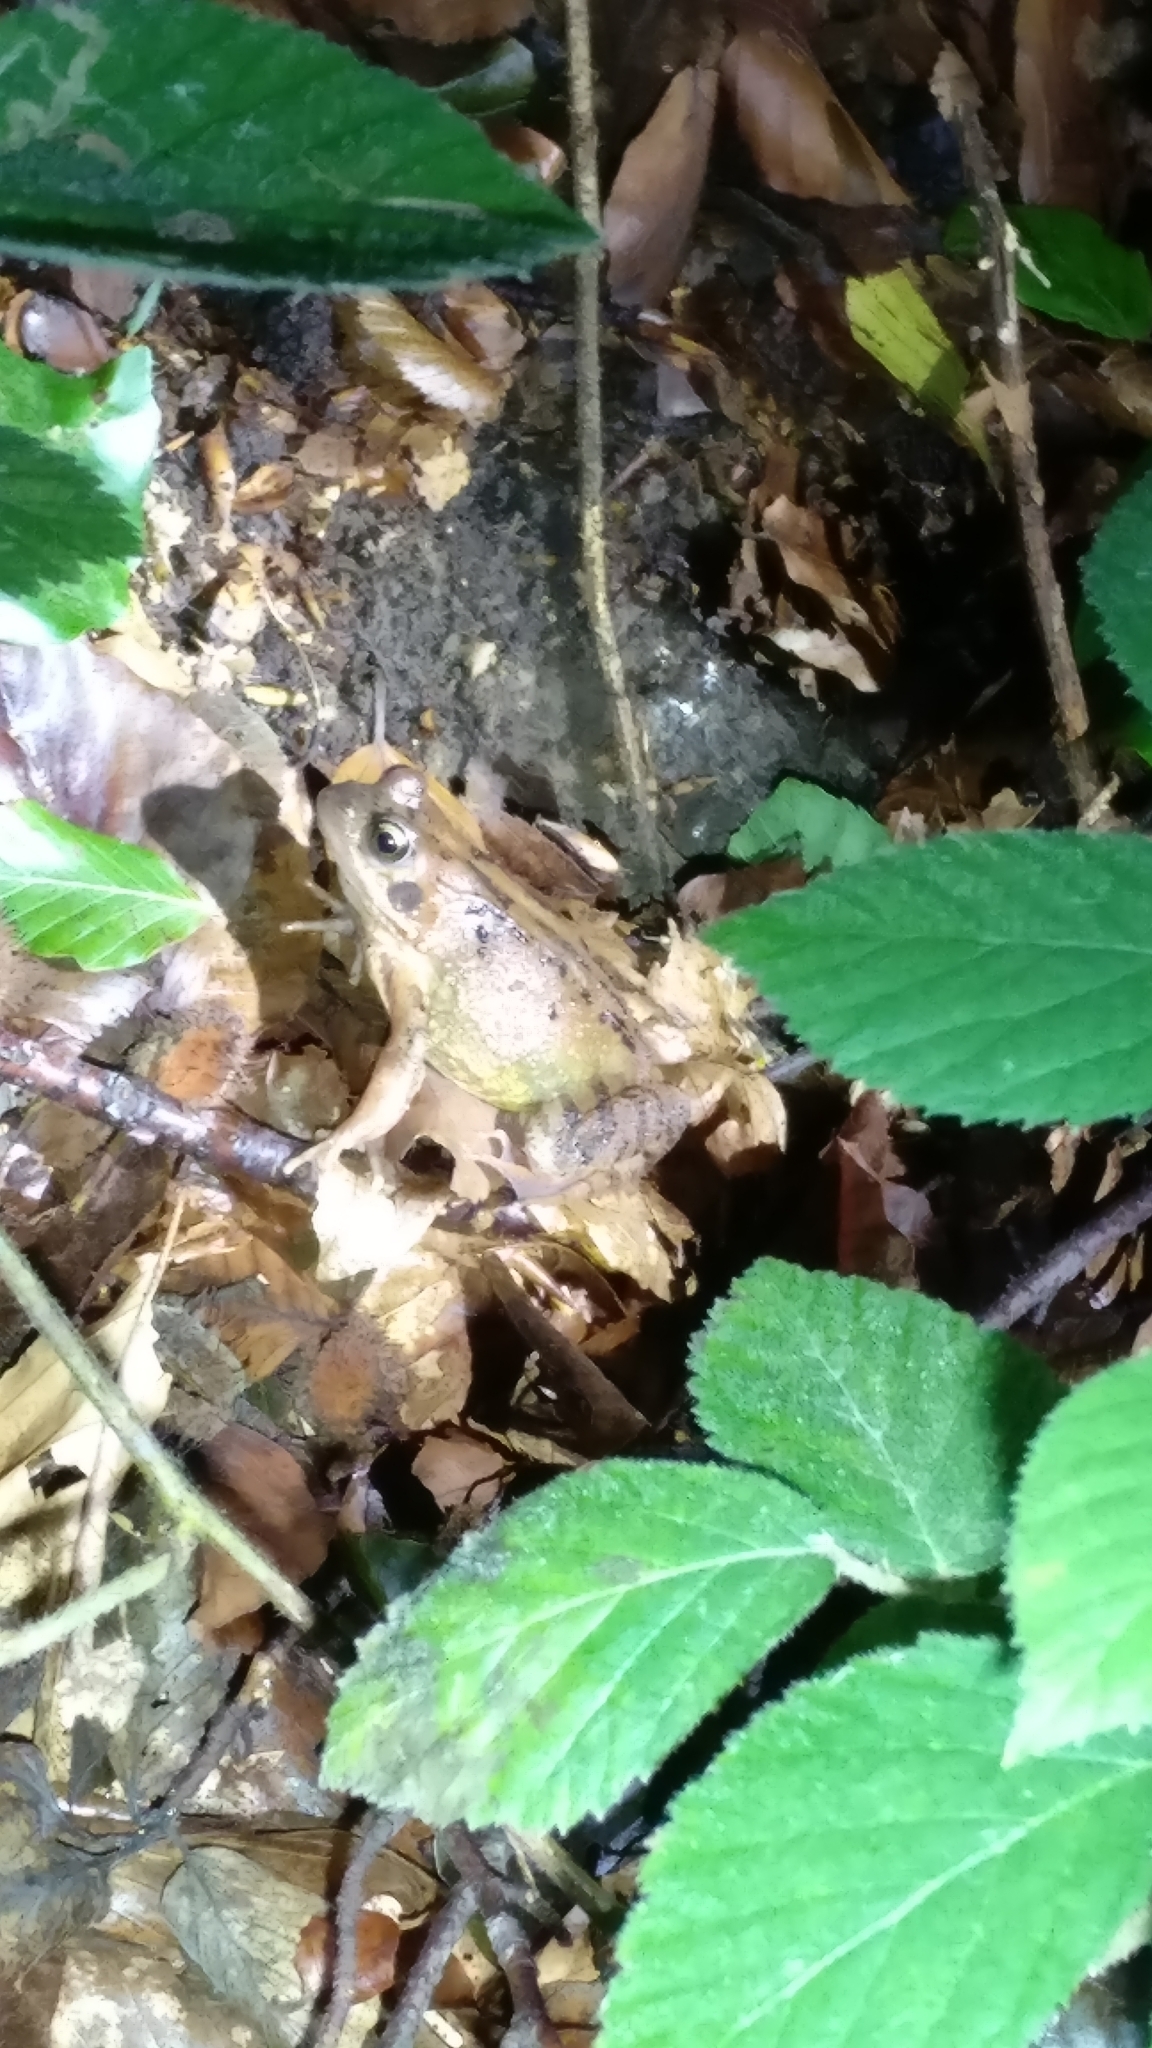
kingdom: Animalia
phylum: Chordata
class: Amphibia
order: Anura
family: Ranidae
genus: Rana
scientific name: Rana temporaria
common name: Common frog
